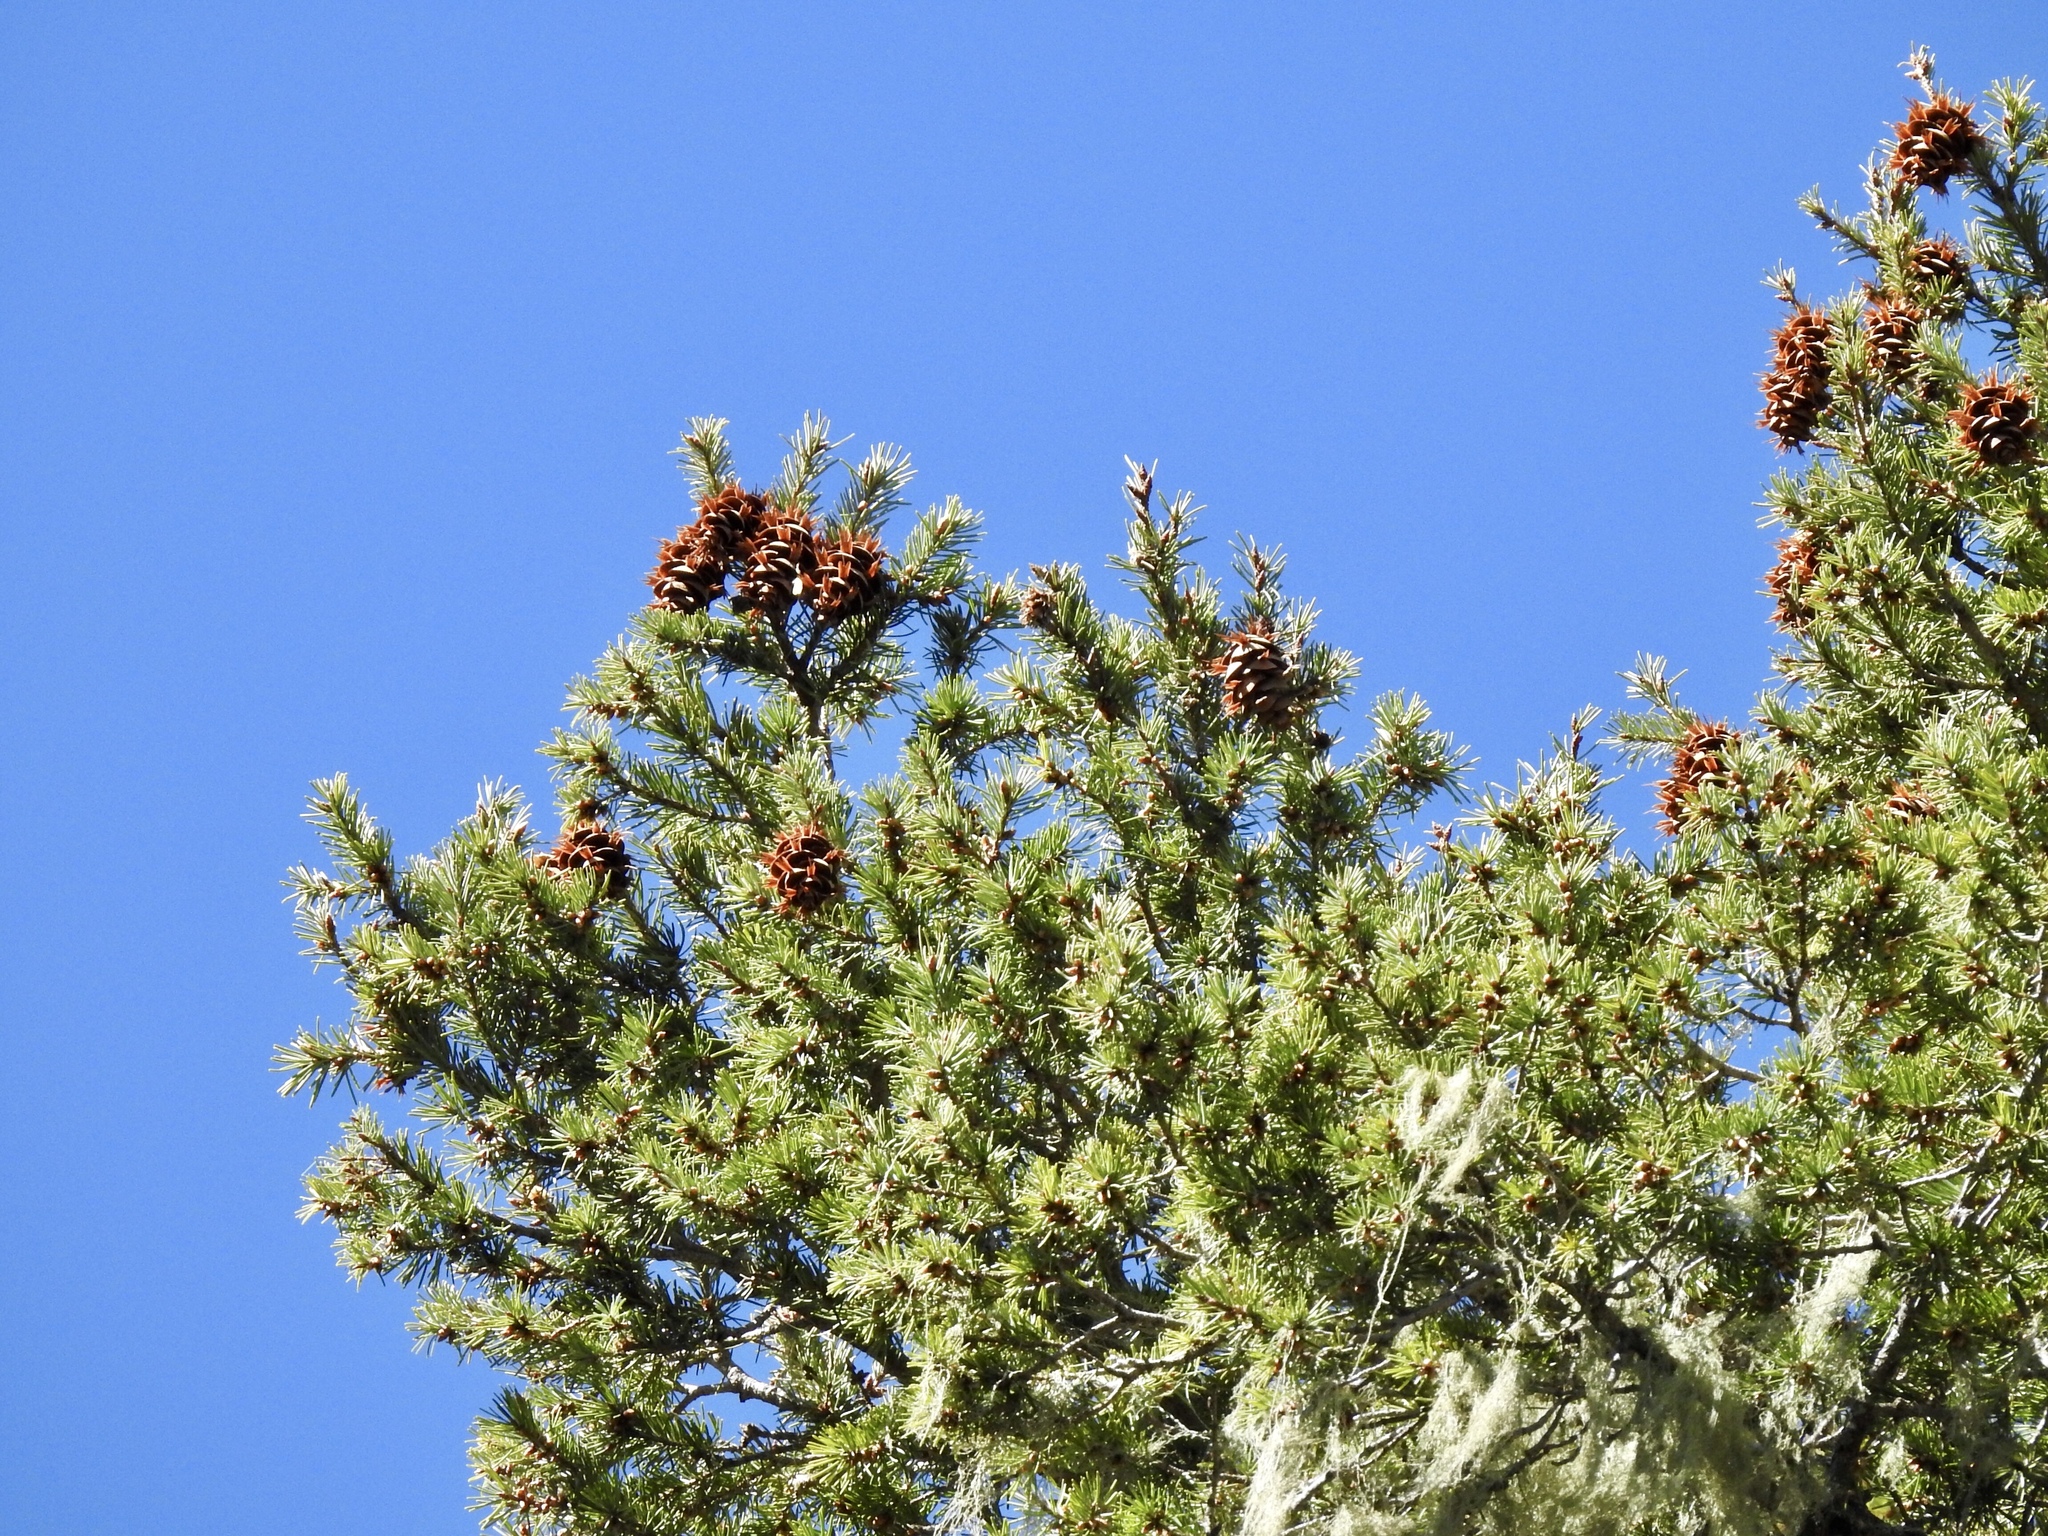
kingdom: Plantae
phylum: Tracheophyta
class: Pinopsida
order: Pinales
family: Pinaceae
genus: Pseudotsuga
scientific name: Pseudotsuga menziesii
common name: Douglas fir
